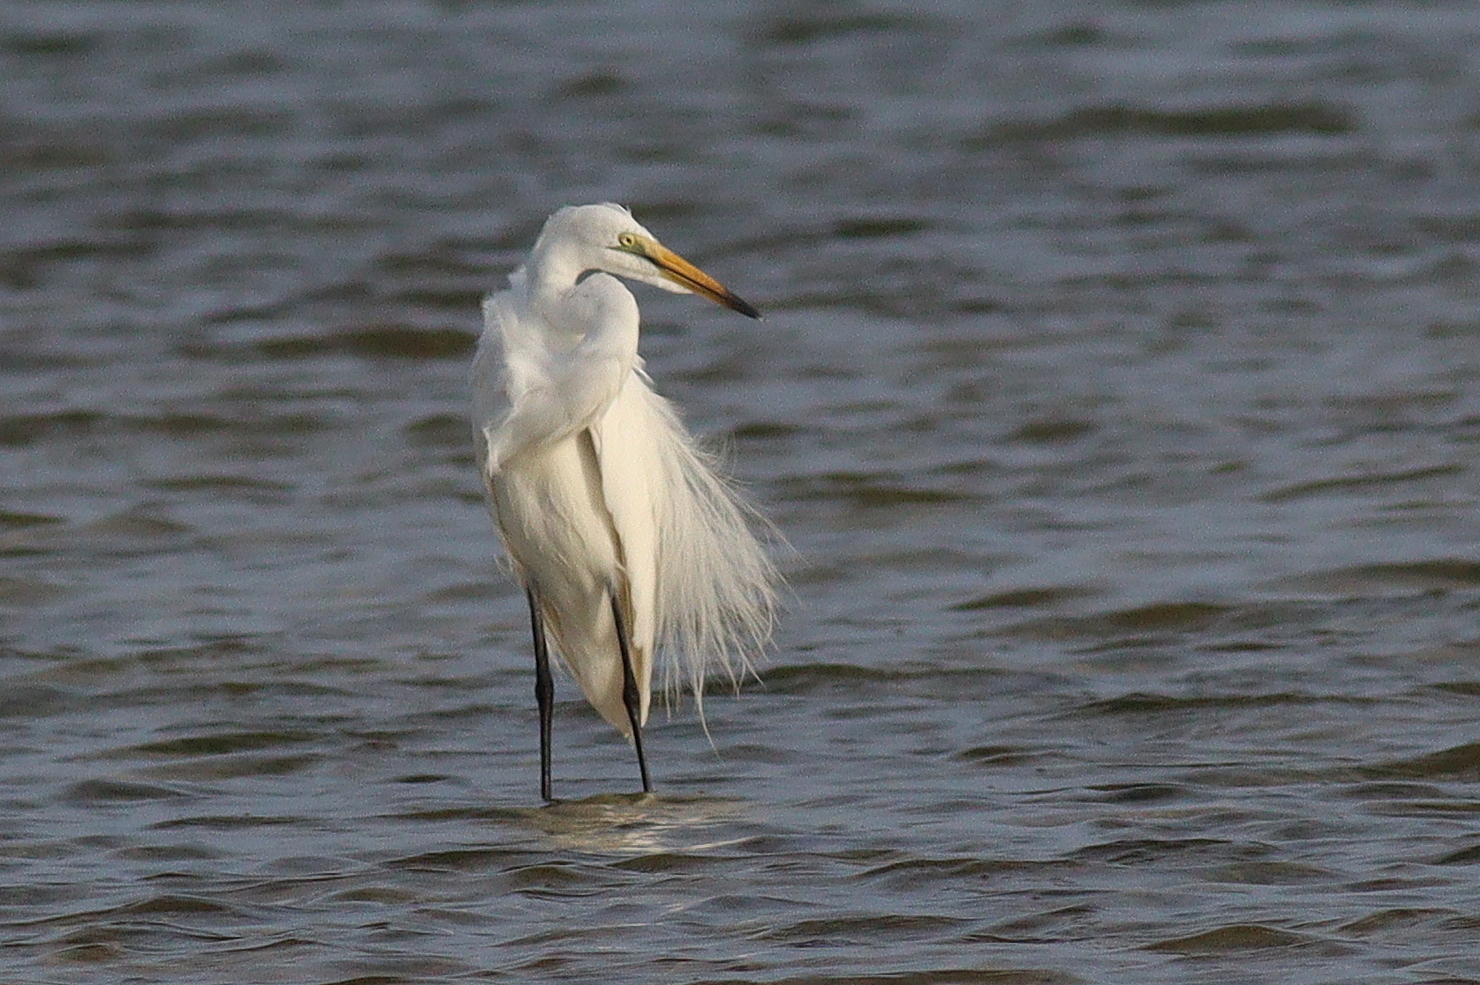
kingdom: Animalia
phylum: Chordata
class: Aves
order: Pelecaniformes
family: Ardeidae
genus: Ardea
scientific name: Ardea alba
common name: Great egret
